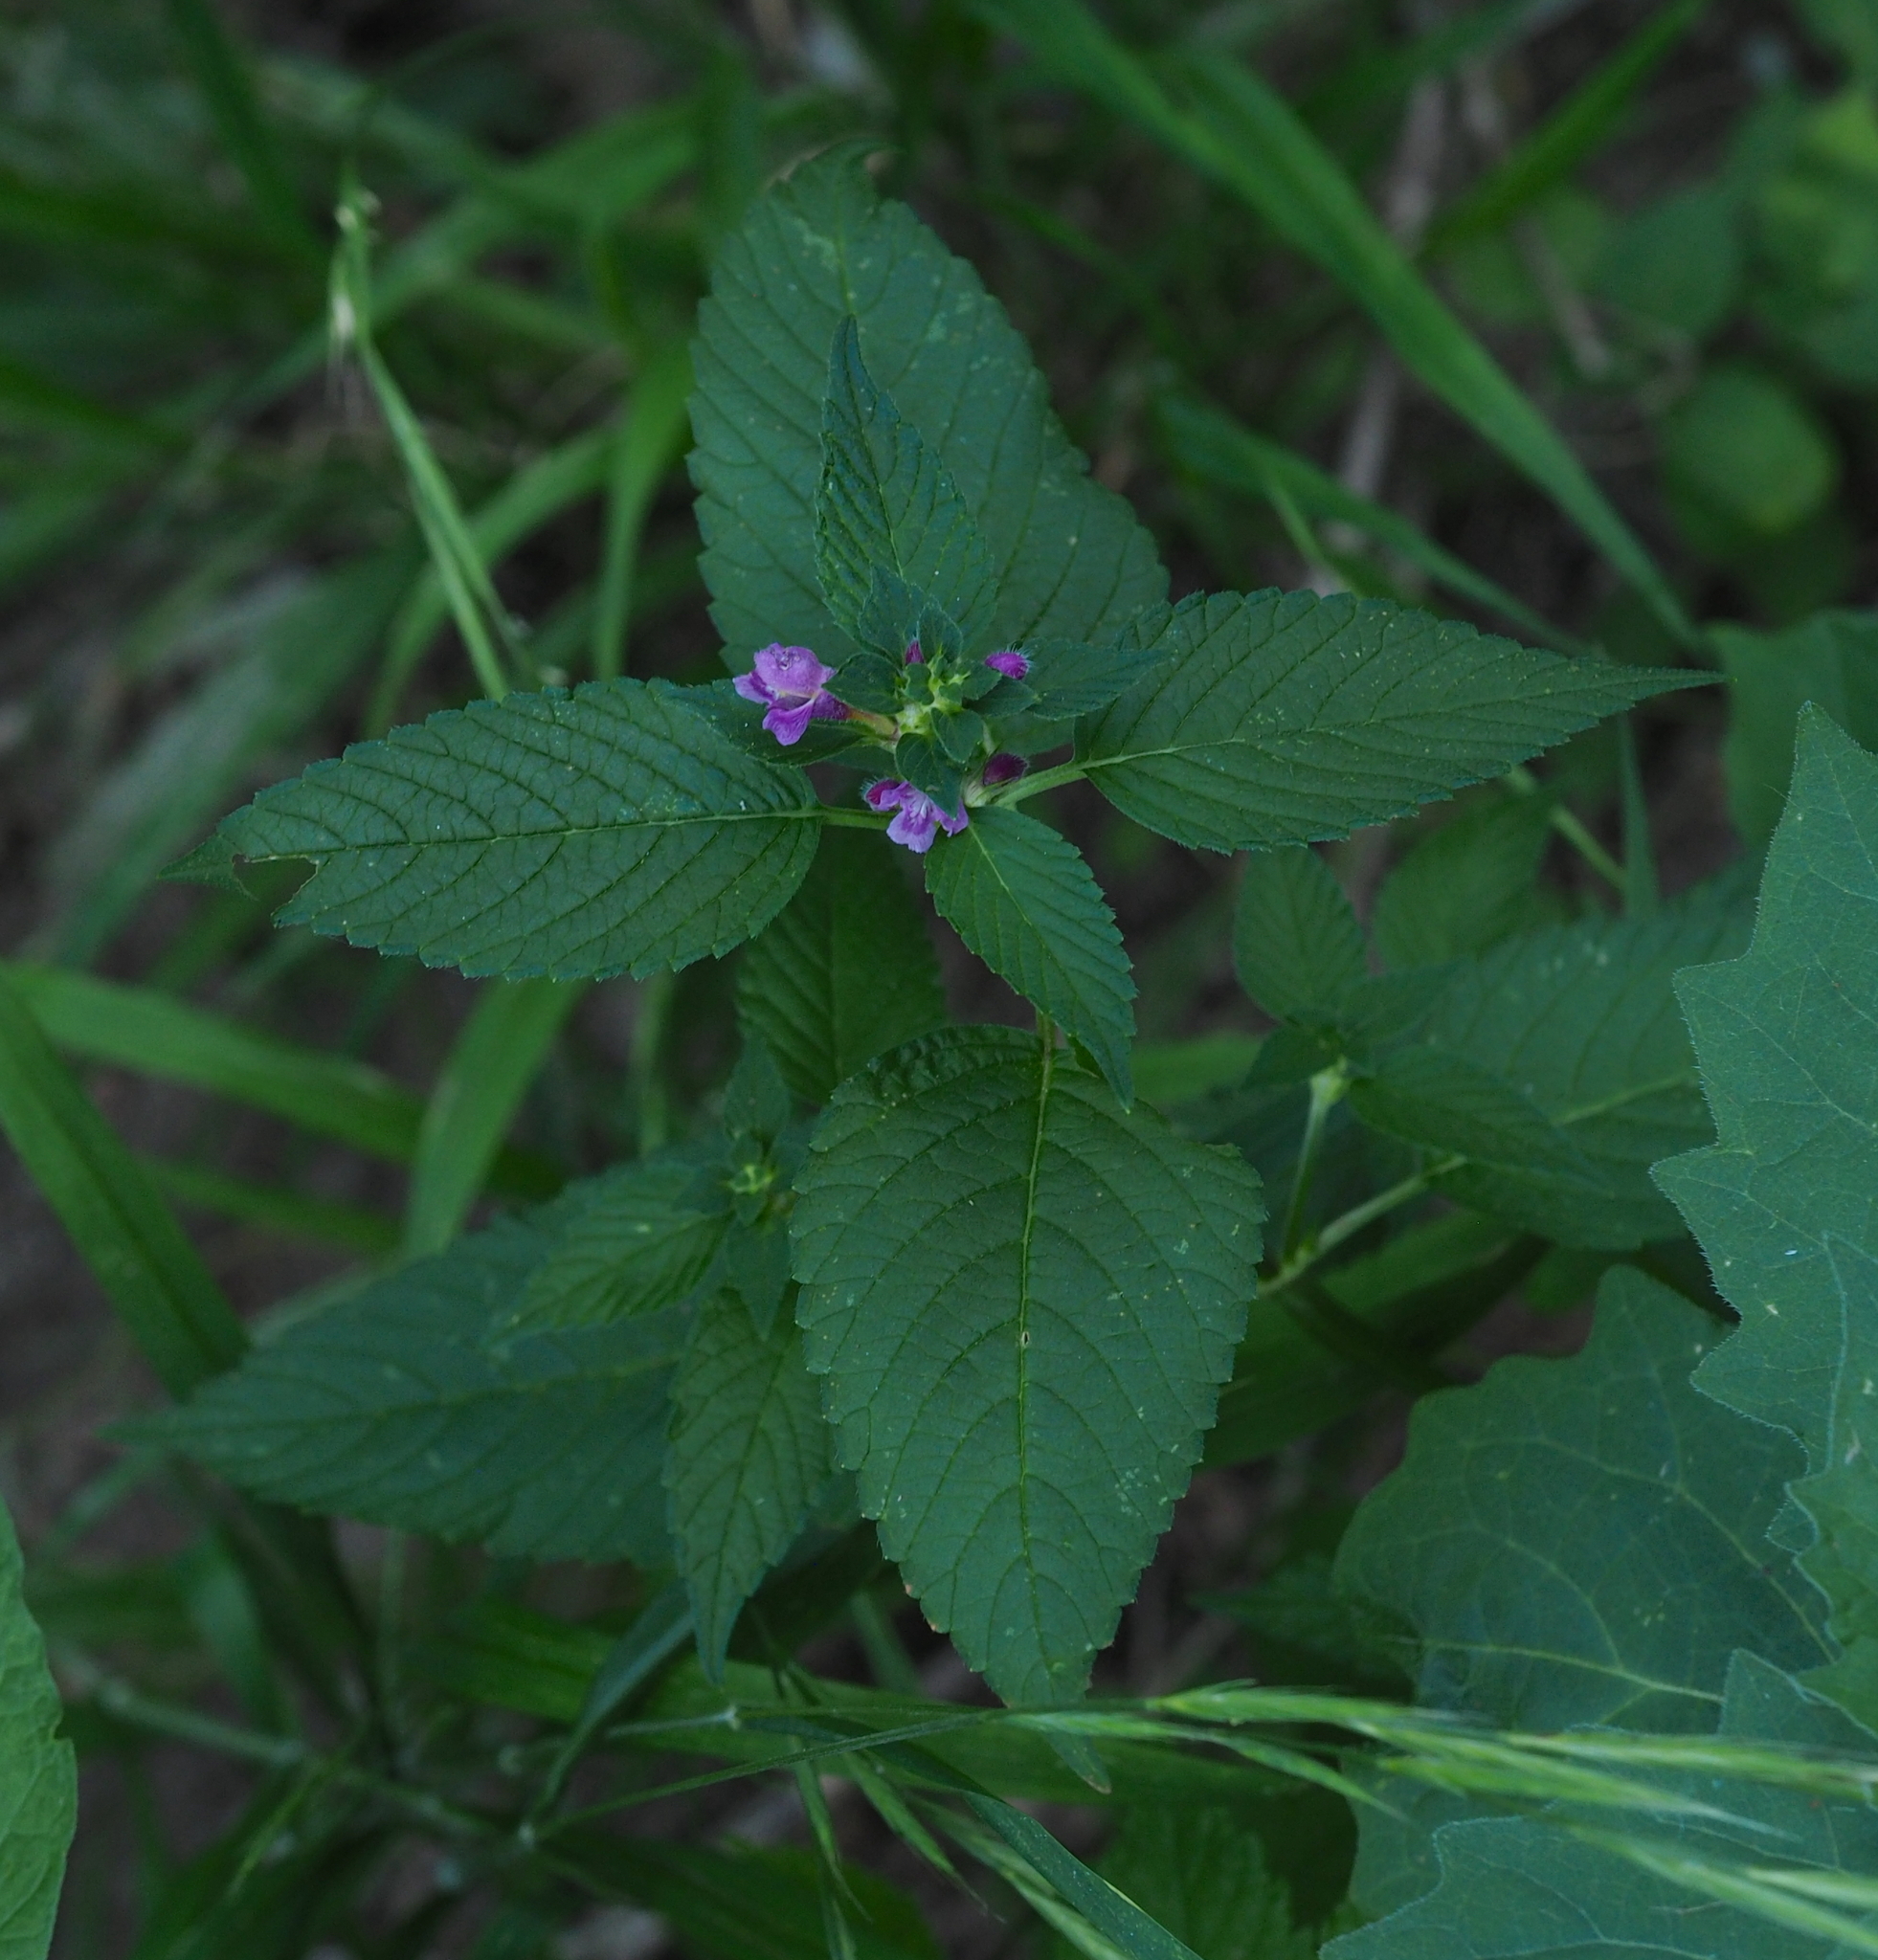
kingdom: Plantae
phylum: Tracheophyta
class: Magnoliopsida
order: Lamiales
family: Lamiaceae
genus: Galeopsis
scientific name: Galeopsis pubescens
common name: Downy hemp-nettle
